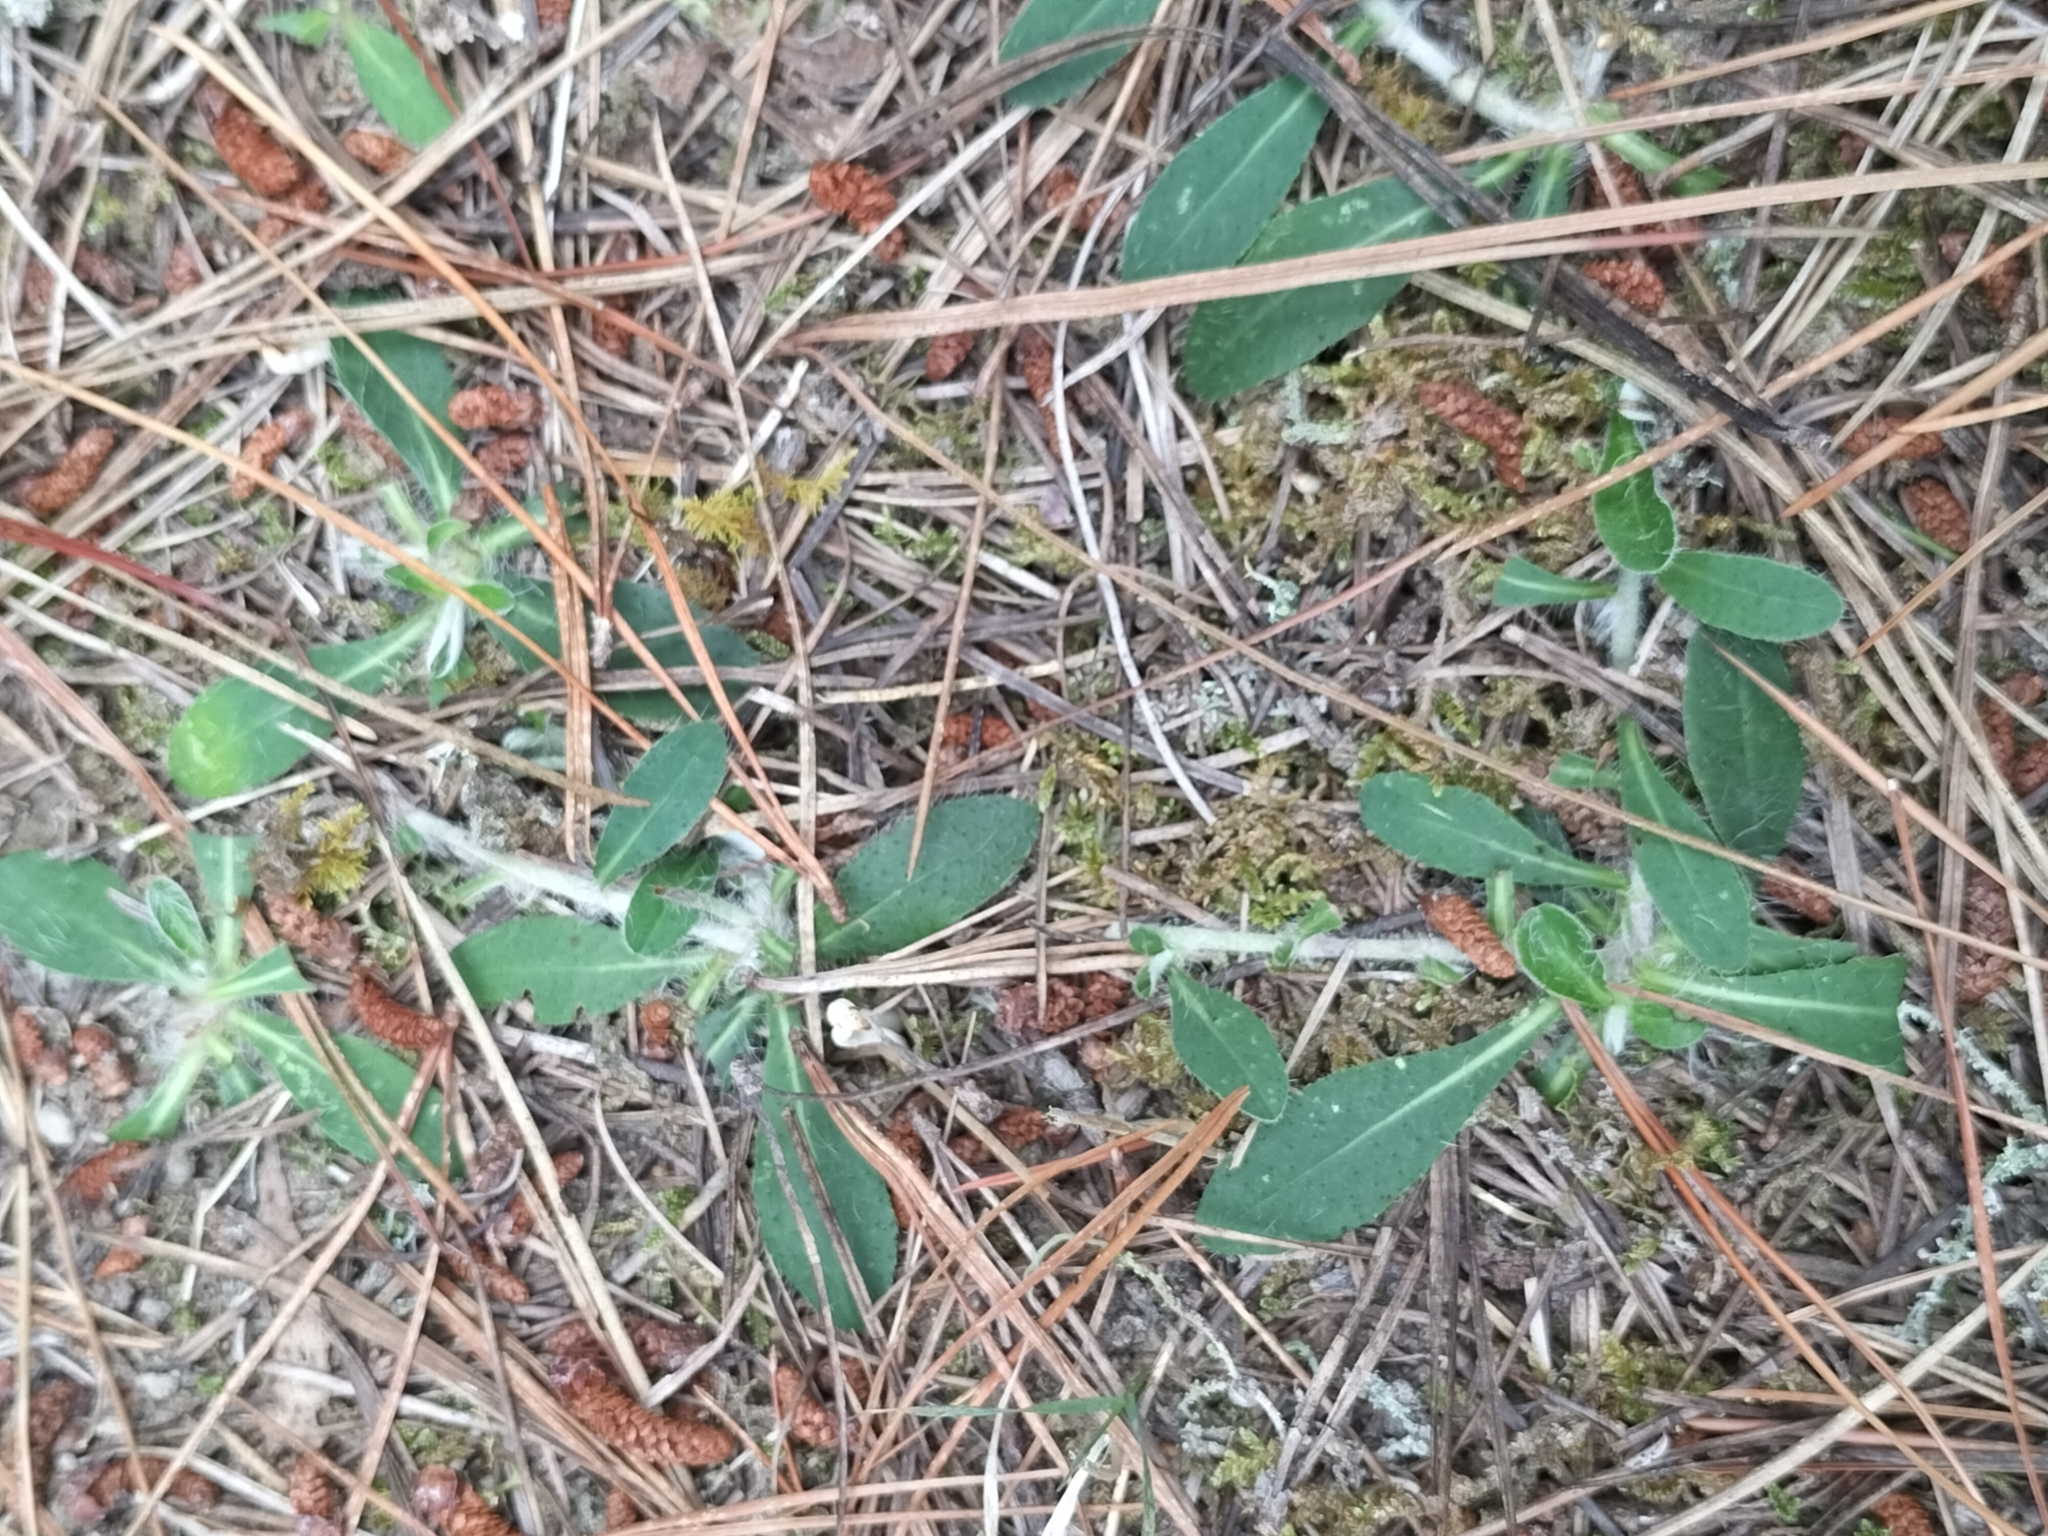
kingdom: Plantae
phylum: Tracheophyta
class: Magnoliopsida
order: Asterales
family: Asteraceae
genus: Pilosella
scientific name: Pilosella officinarum
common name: Mouse-ear hawkweed
